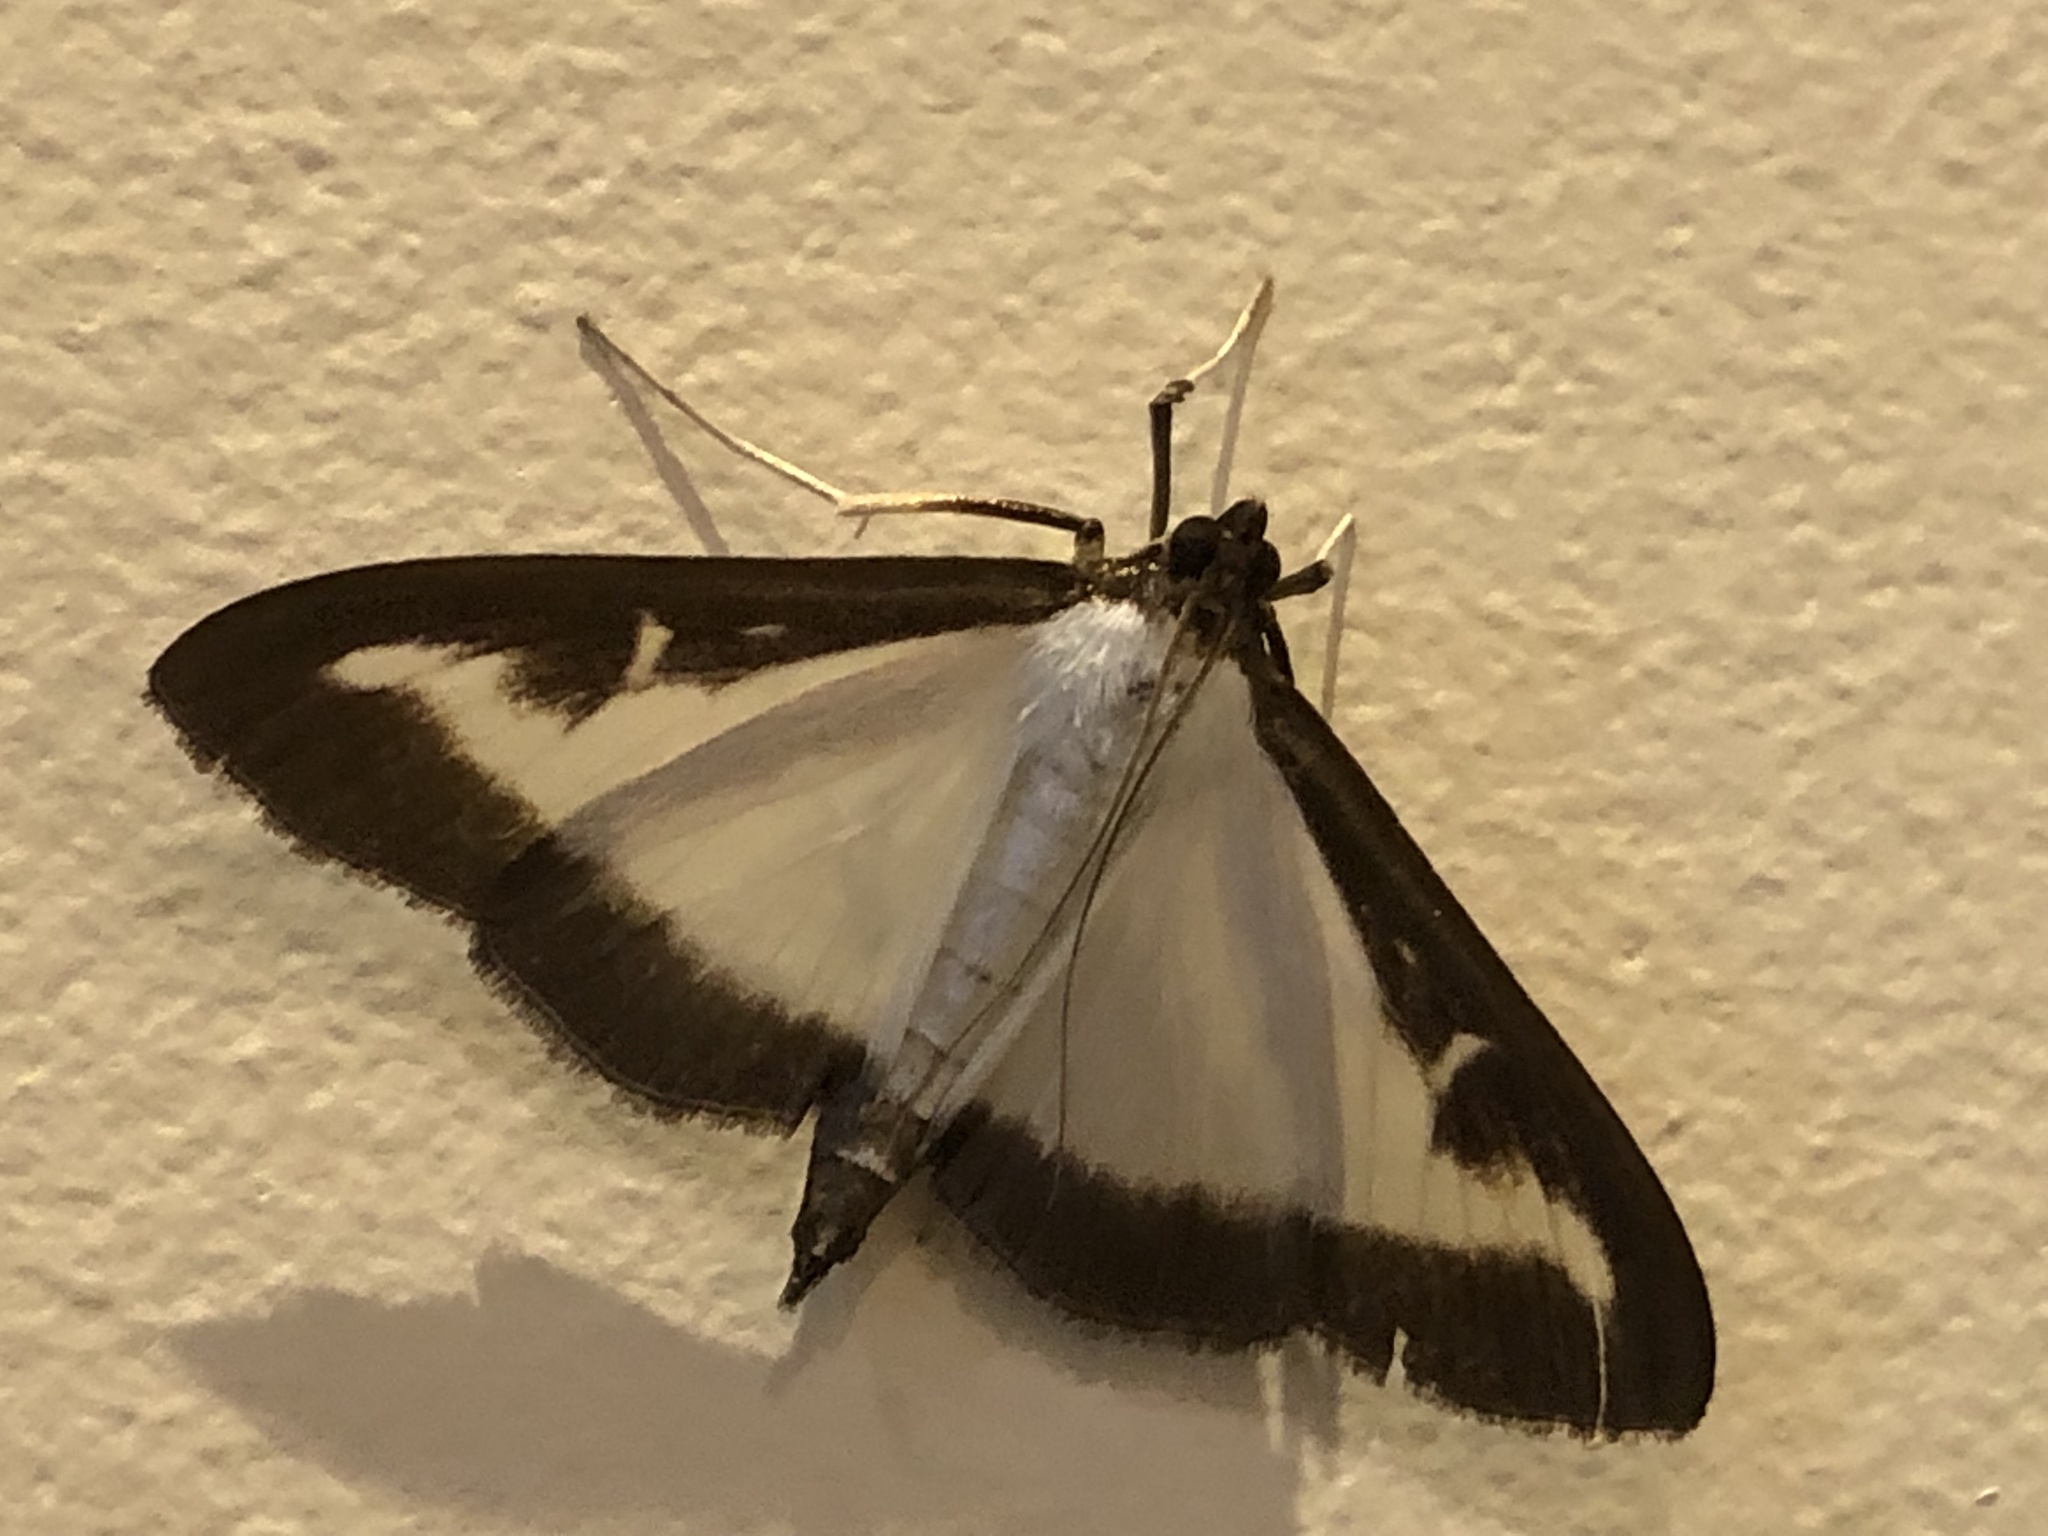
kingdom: Animalia
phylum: Arthropoda
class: Insecta
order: Lepidoptera
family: Crambidae
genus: Cydalima
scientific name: Cydalima perspectalis
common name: Box tree moth
